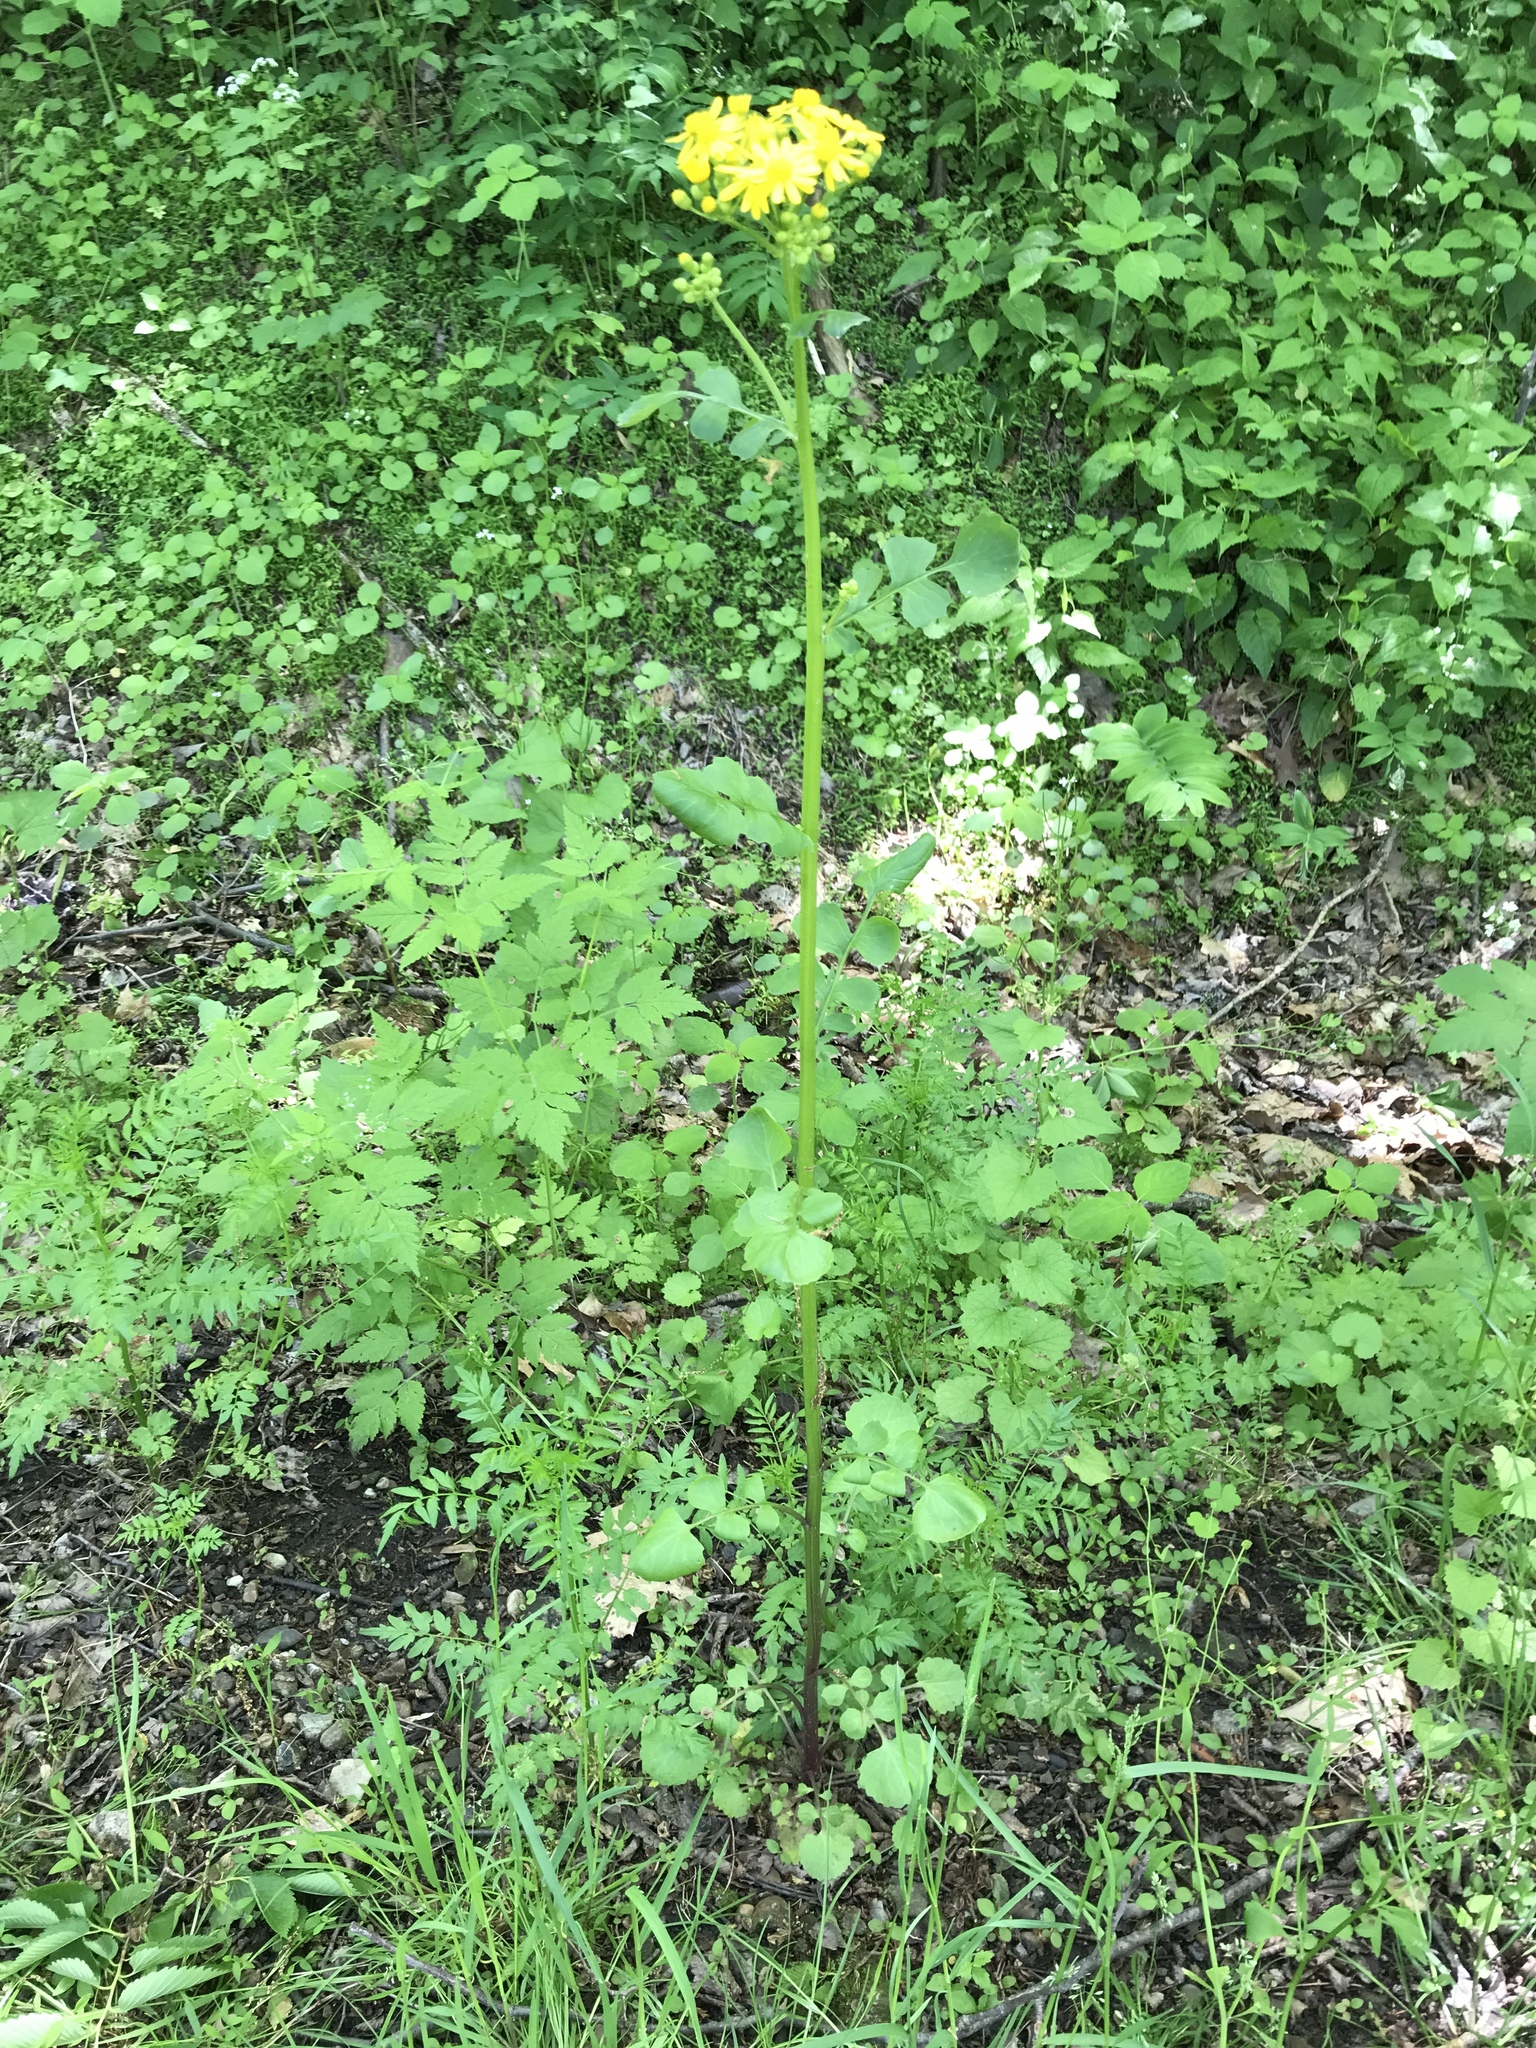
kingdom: Plantae
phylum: Tracheophyta
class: Magnoliopsida
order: Asterales
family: Asteraceae
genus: Packera
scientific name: Packera glabella
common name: Butterweed
